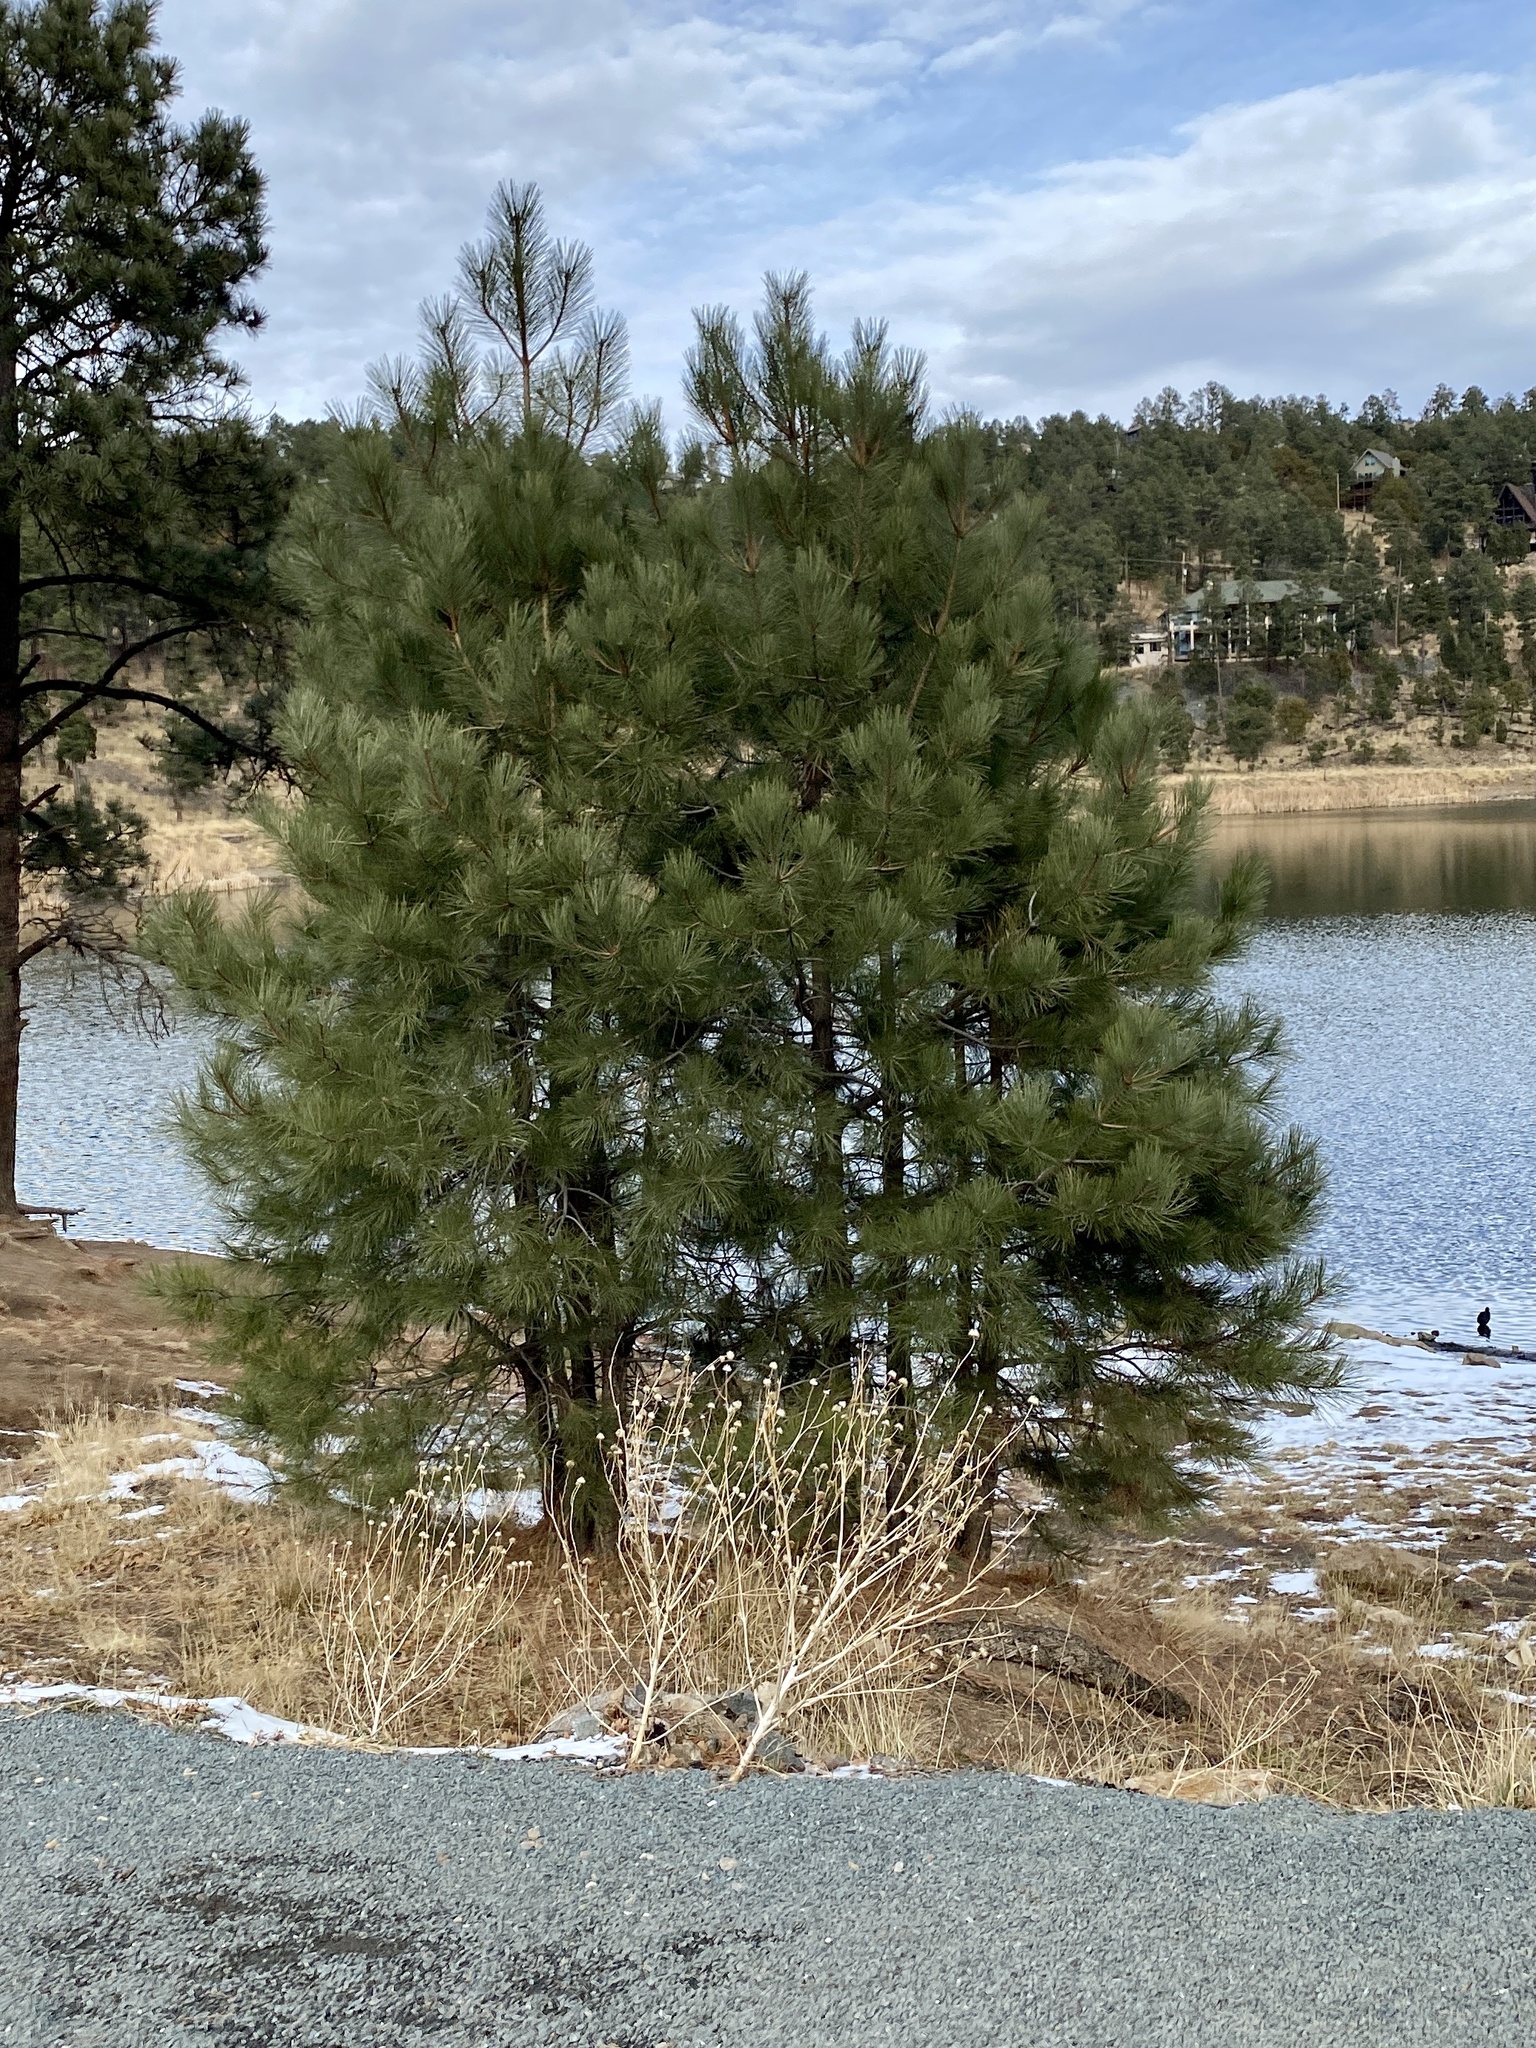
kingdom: Plantae
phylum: Tracheophyta
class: Pinopsida
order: Pinales
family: Pinaceae
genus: Pinus
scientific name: Pinus ponderosa
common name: Western yellow-pine
